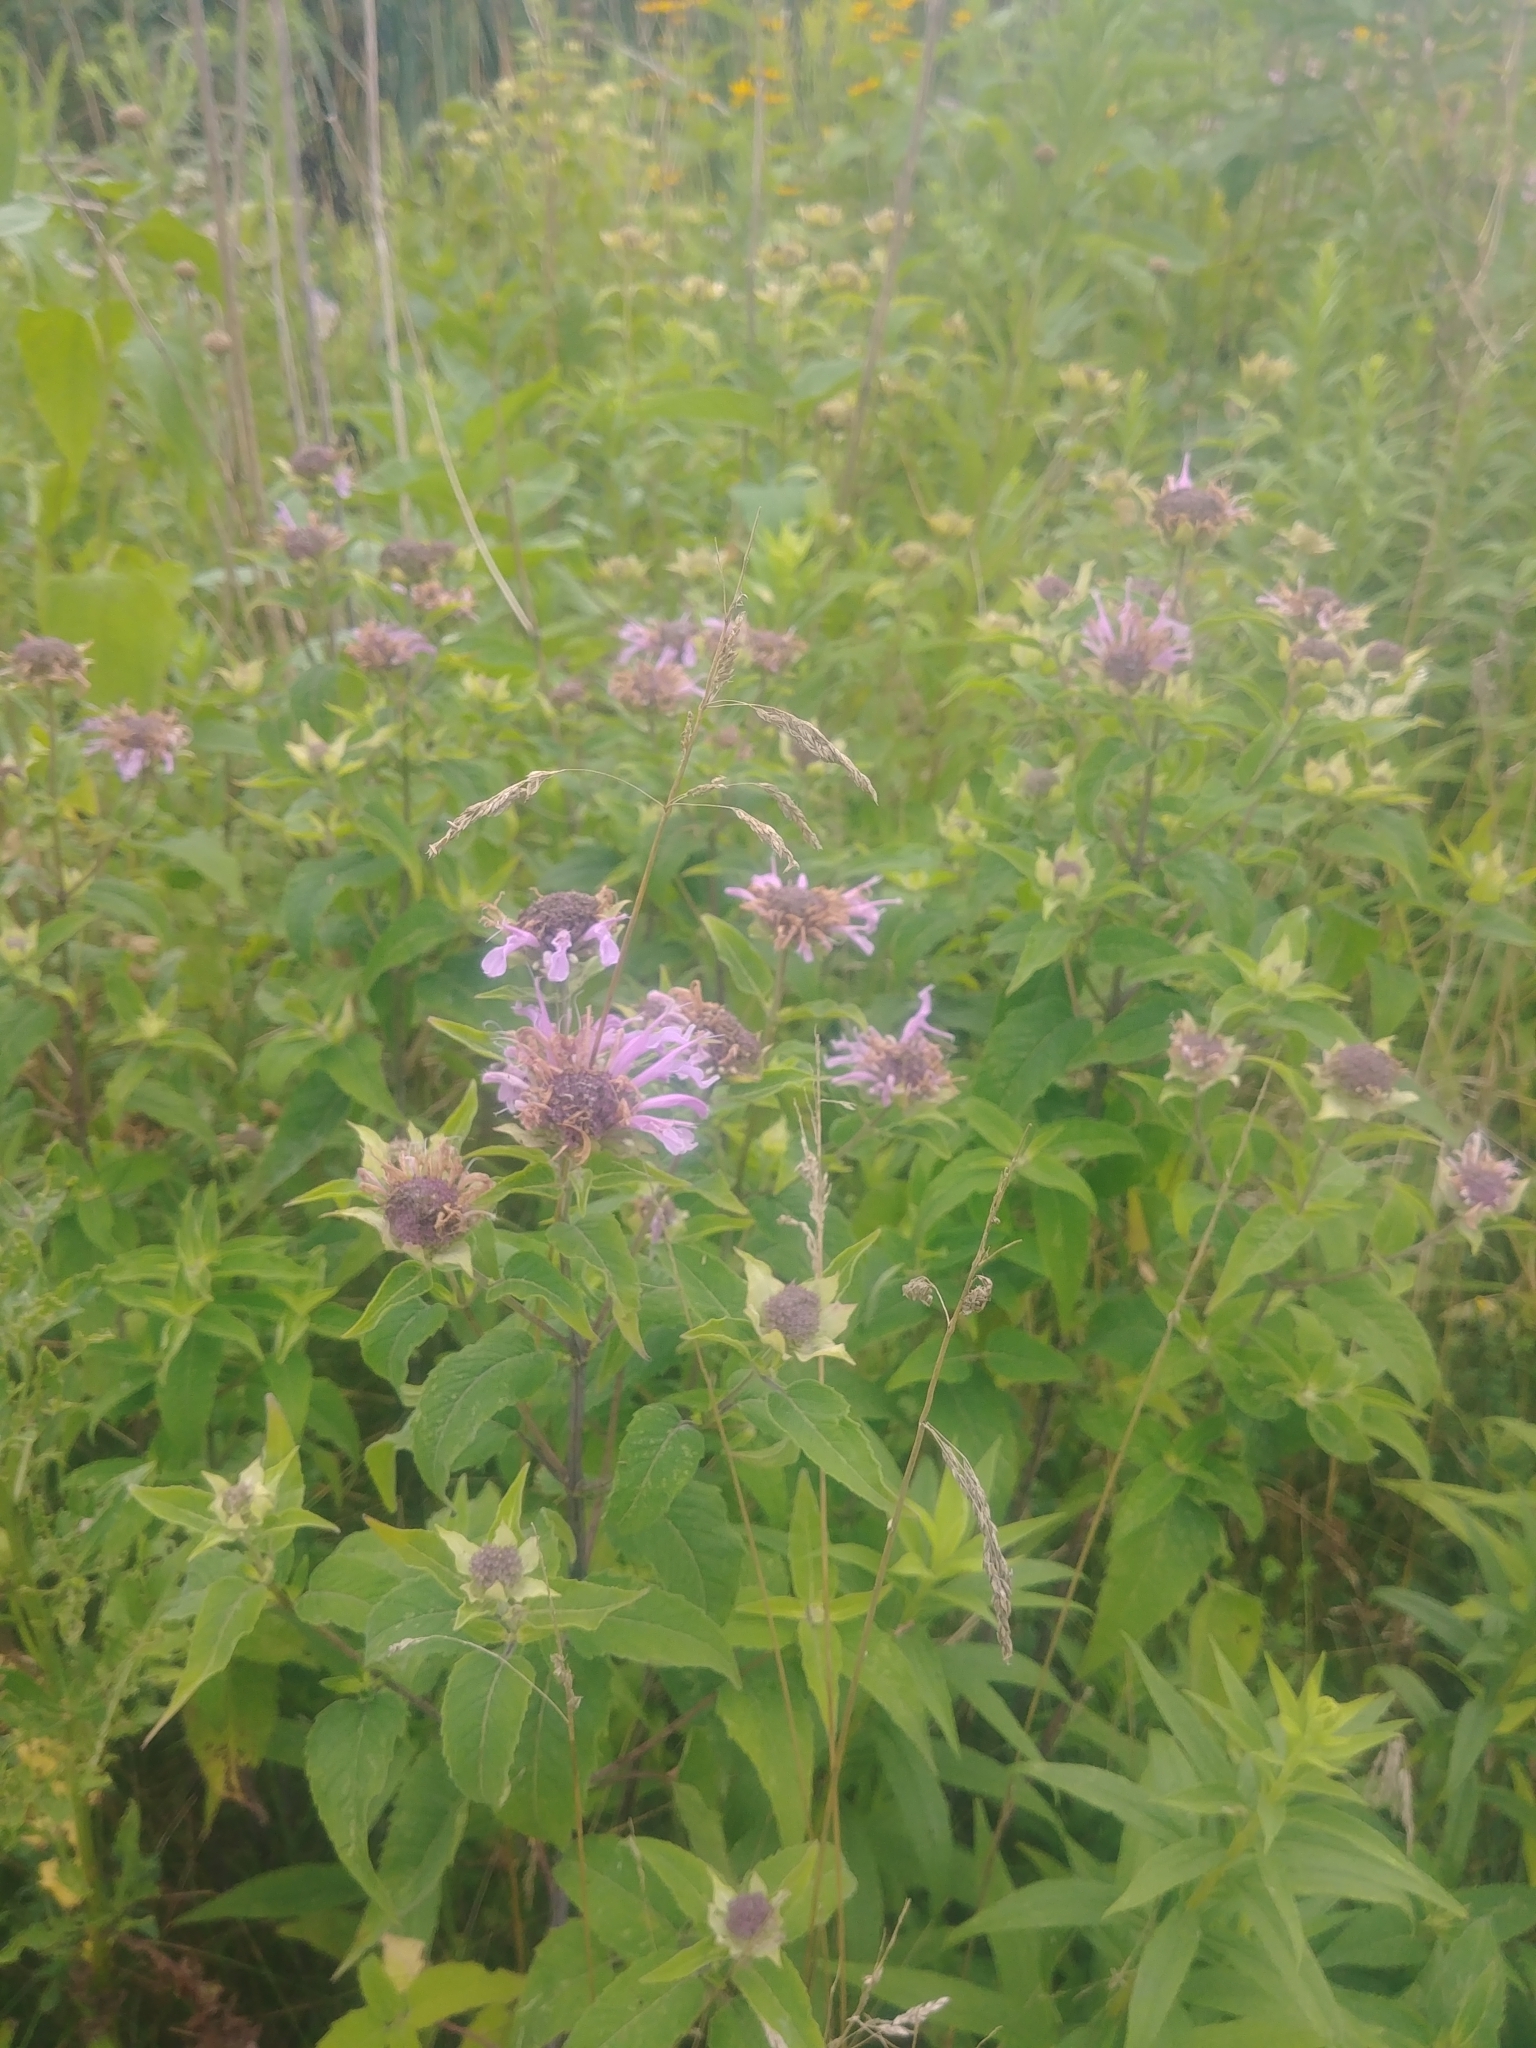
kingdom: Plantae
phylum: Tracheophyta
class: Magnoliopsida
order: Lamiales
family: Lamiaceae
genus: Monarda
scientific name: Monarda fistulosa
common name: Purple beebalm
